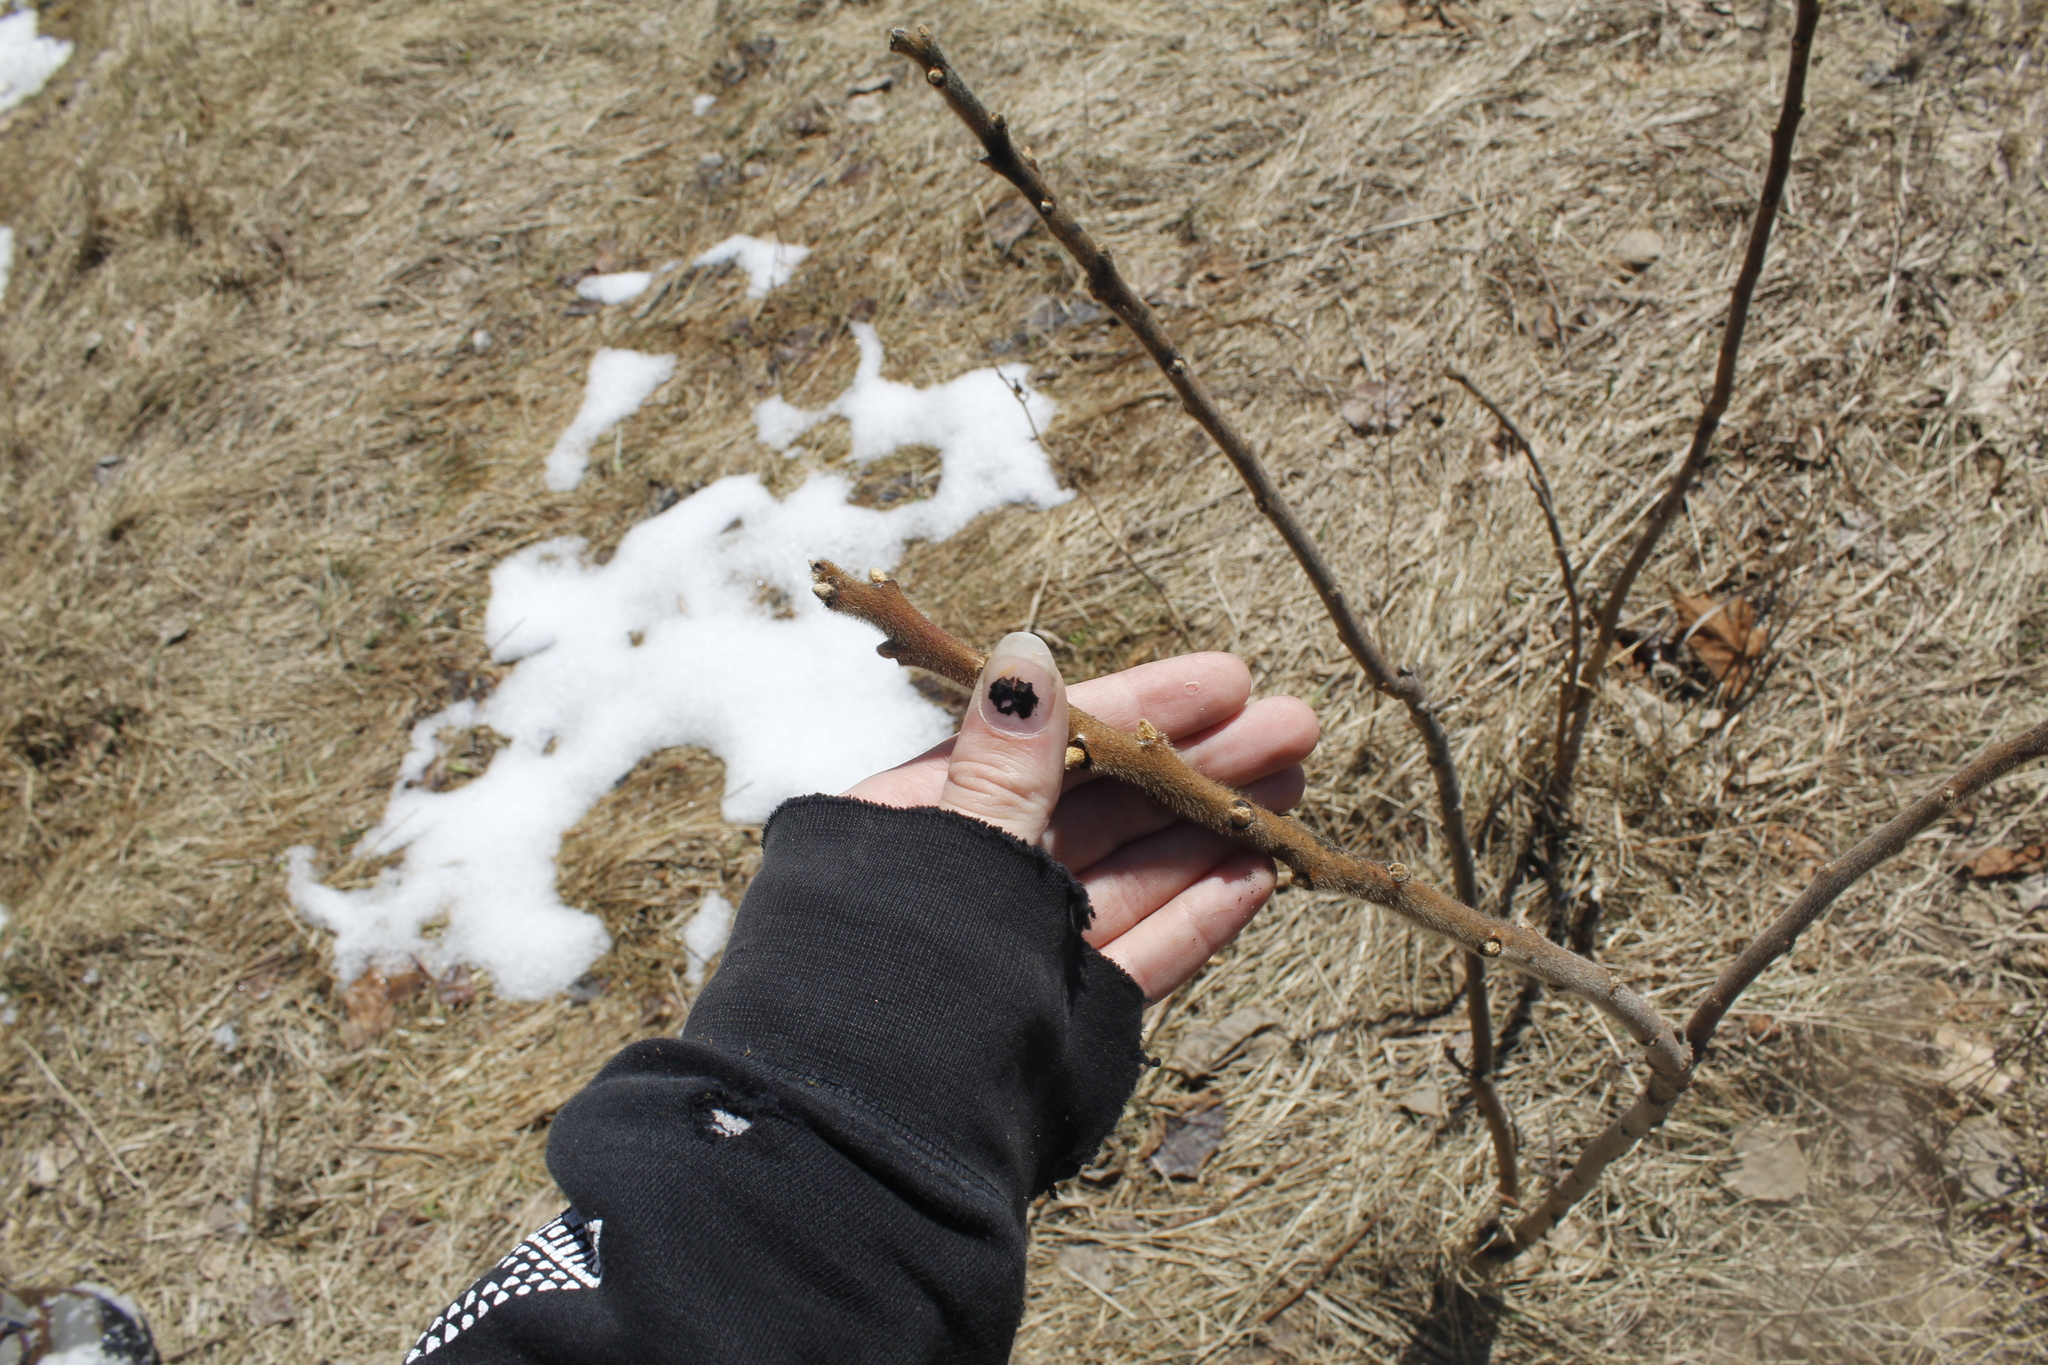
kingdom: Plantae
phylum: Tracheophyta
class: Magnoliopsida
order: Sapindales
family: Anacardiaceae
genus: Rhus
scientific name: Rhus typhina
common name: Staghorn sumac
